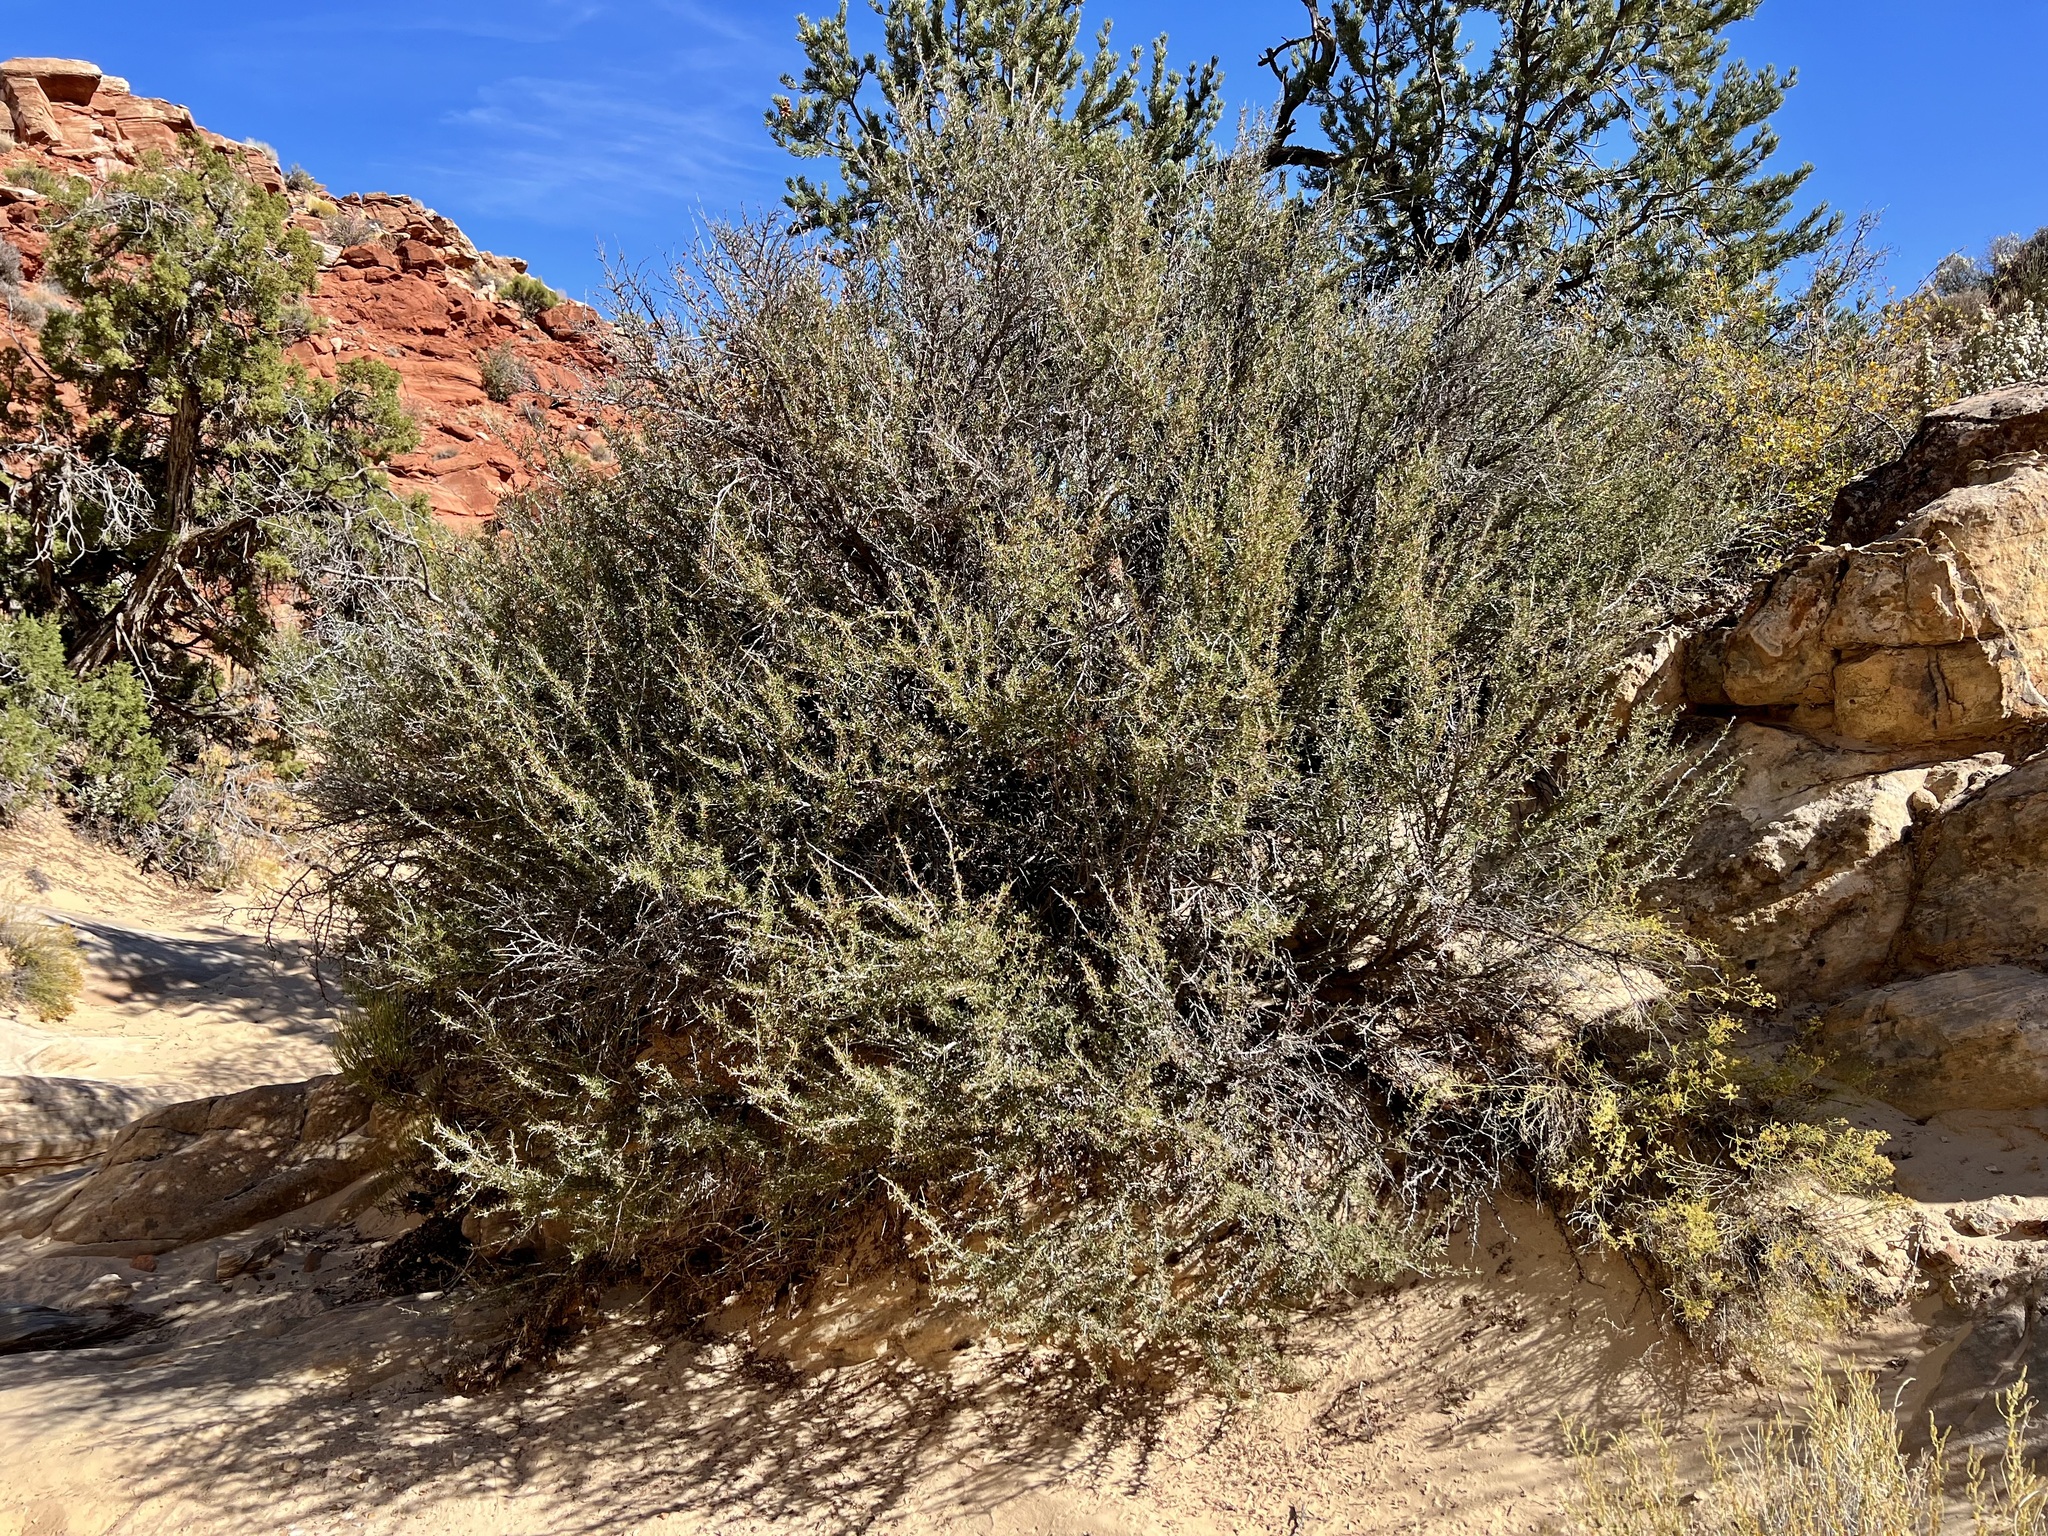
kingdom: Plantae
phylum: Tracheophyta
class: Magnoliopsida
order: Rosales
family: Rosaceae
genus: Cercocarpus
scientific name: Cercocarpus intricatus
